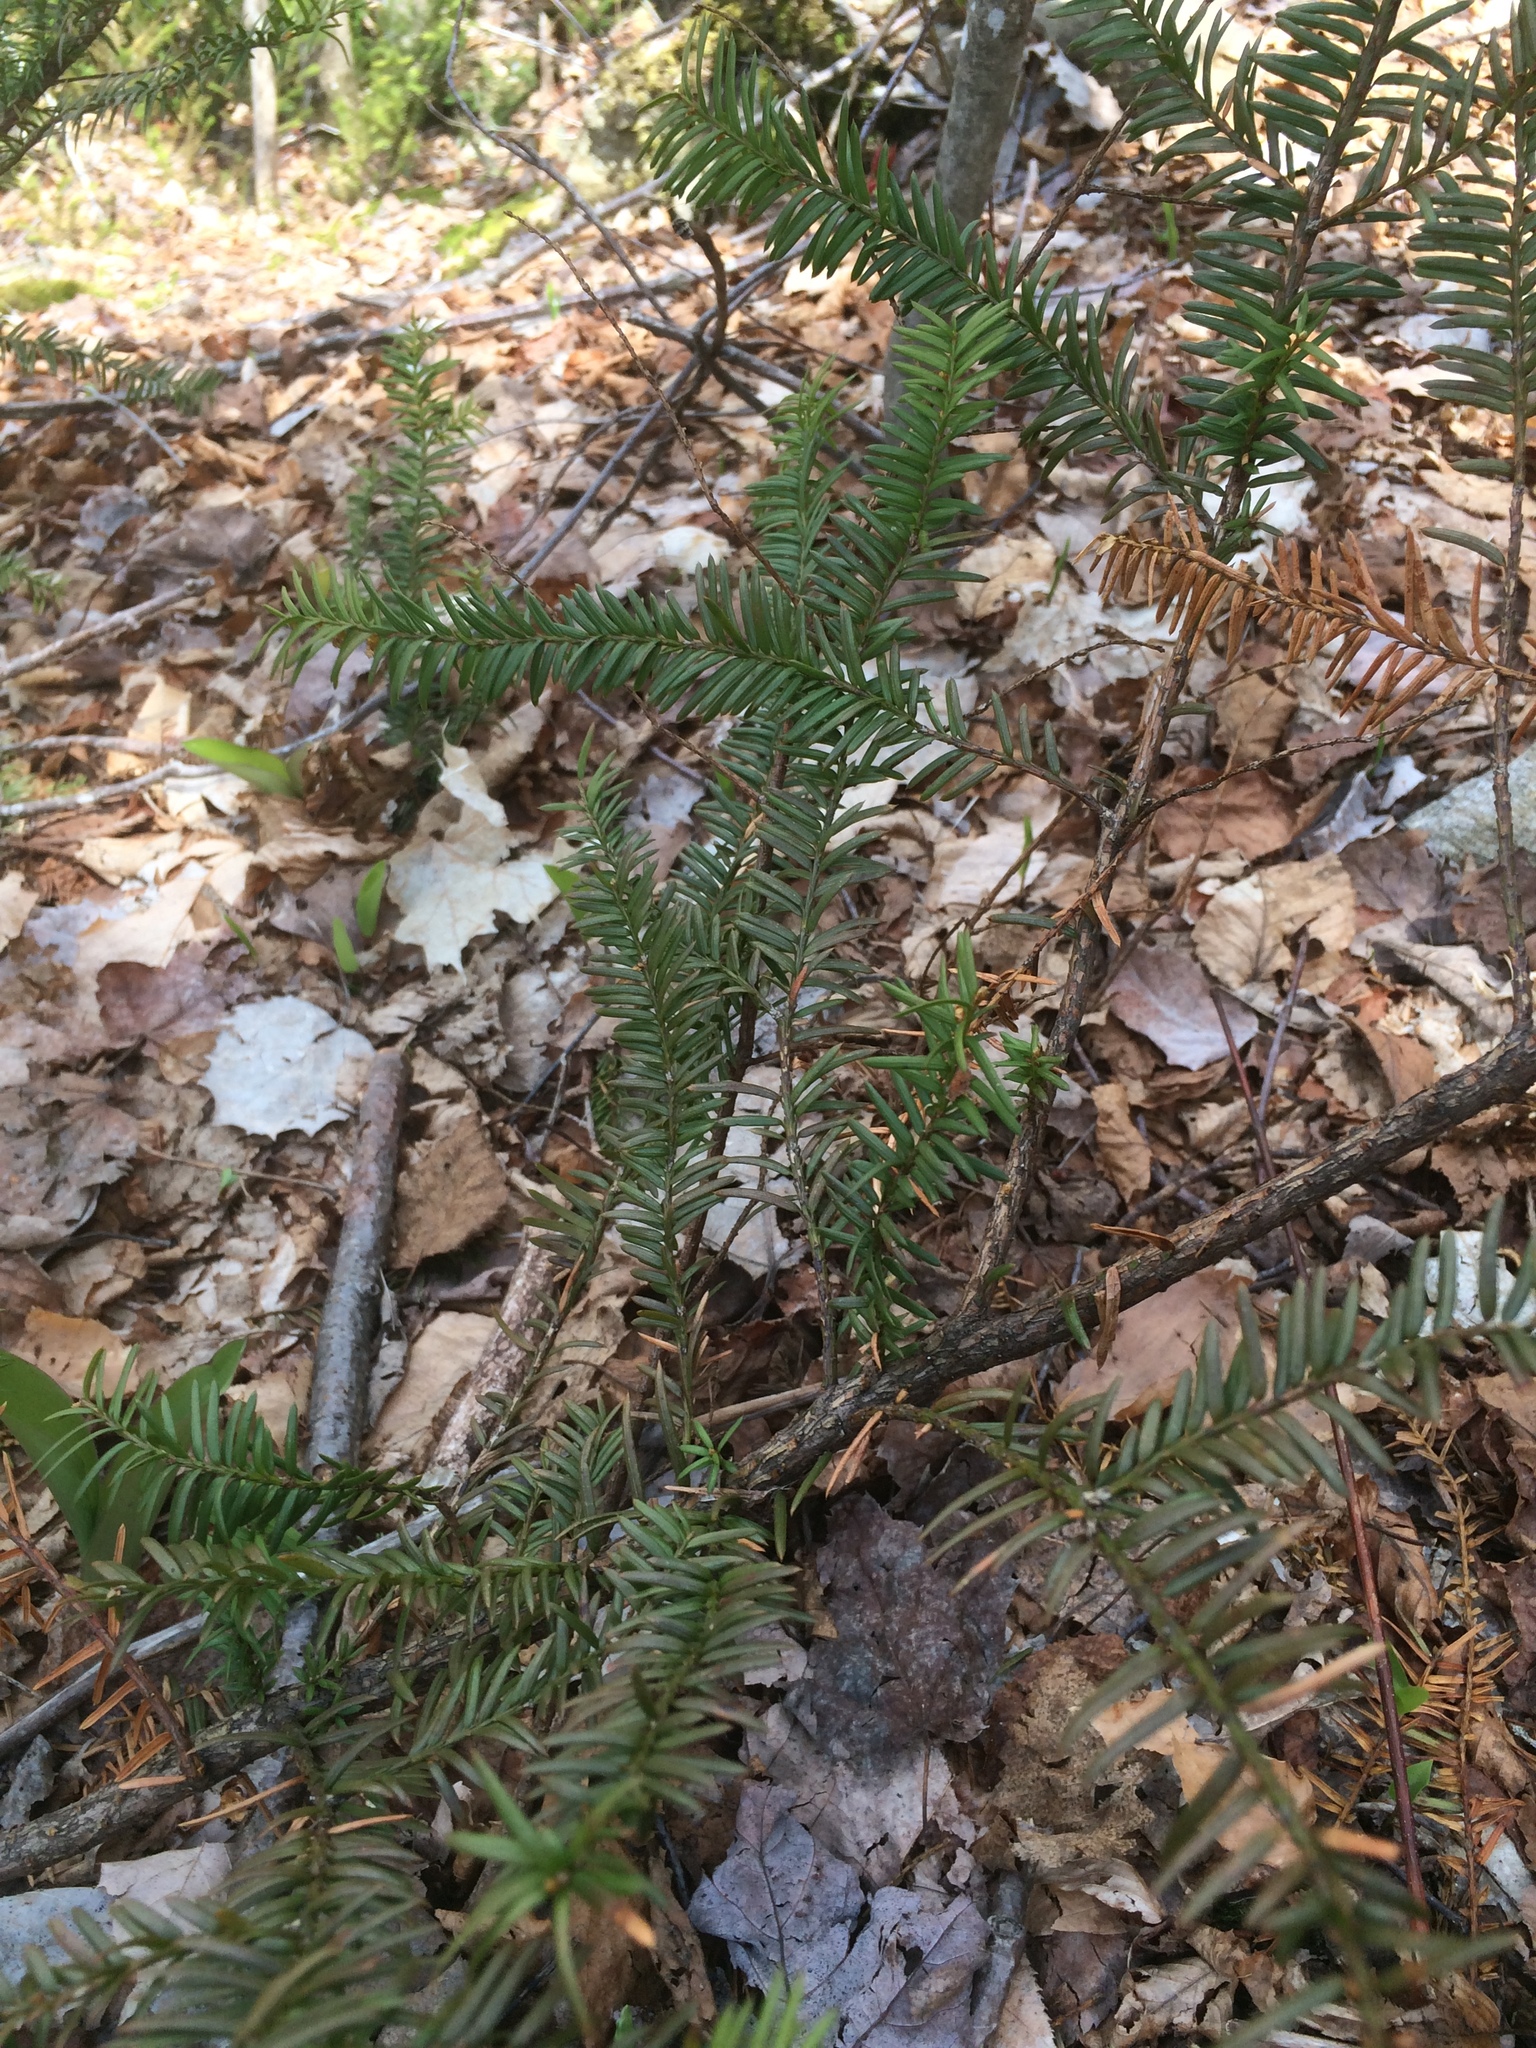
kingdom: Plantae
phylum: Tracheophyta
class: Pinopsida
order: Pinales
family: Taxaceae
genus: Taxus
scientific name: Taxus canadensis
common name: American yew
